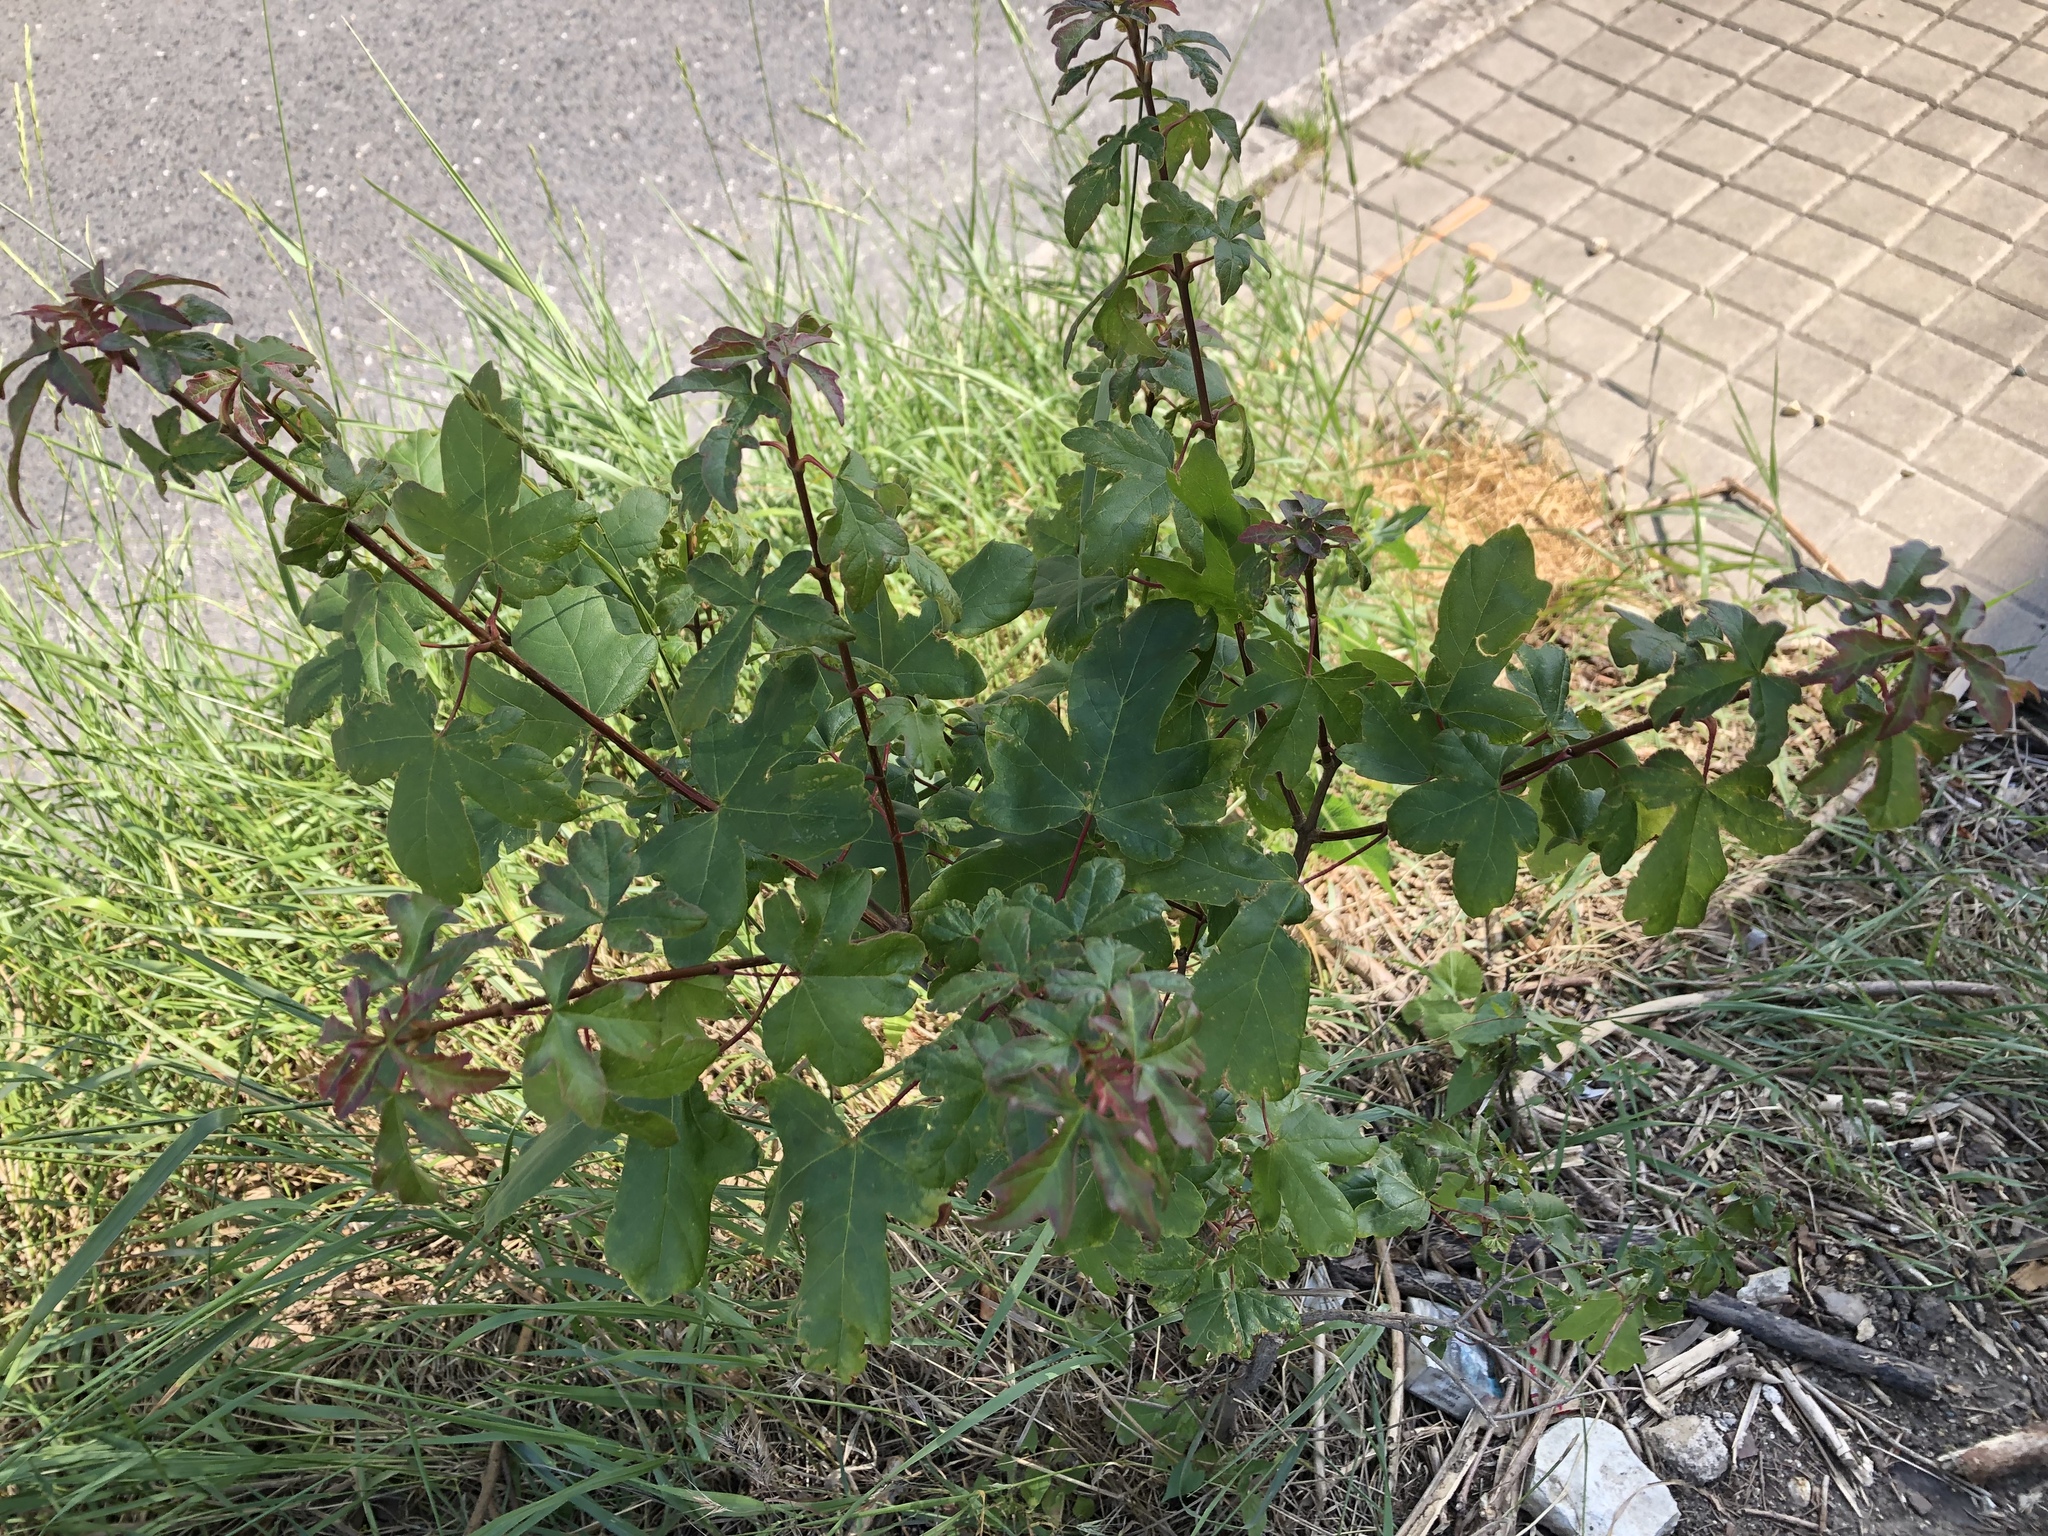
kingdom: Plantae
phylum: Tracheophyta
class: Magnoliopsida
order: Sapindales
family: Sapindaceae
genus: Acer
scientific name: Acer campestre
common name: Field maple
